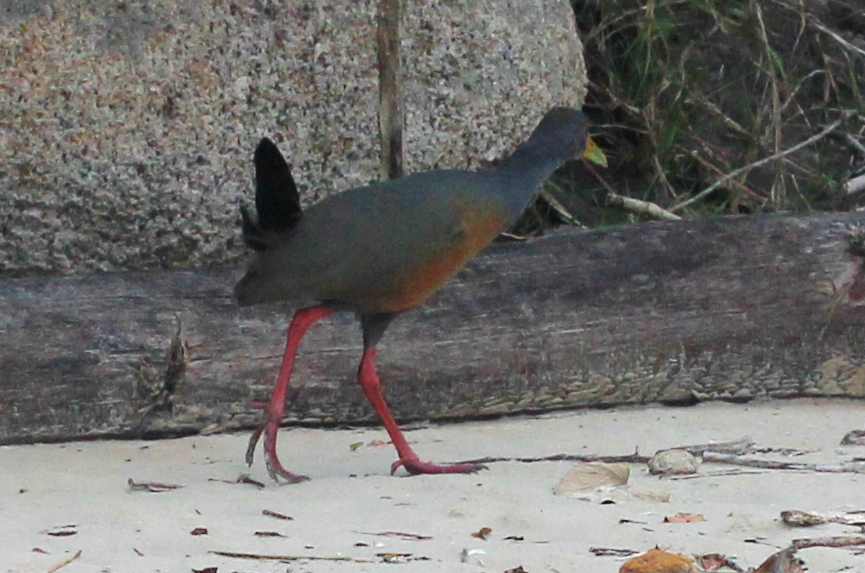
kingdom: Animalia
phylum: Chordata
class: Aves
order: Gruiformes
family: Rallidae
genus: Aramides
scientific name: Aramides cajanea
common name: Gray-necked wood-rail
